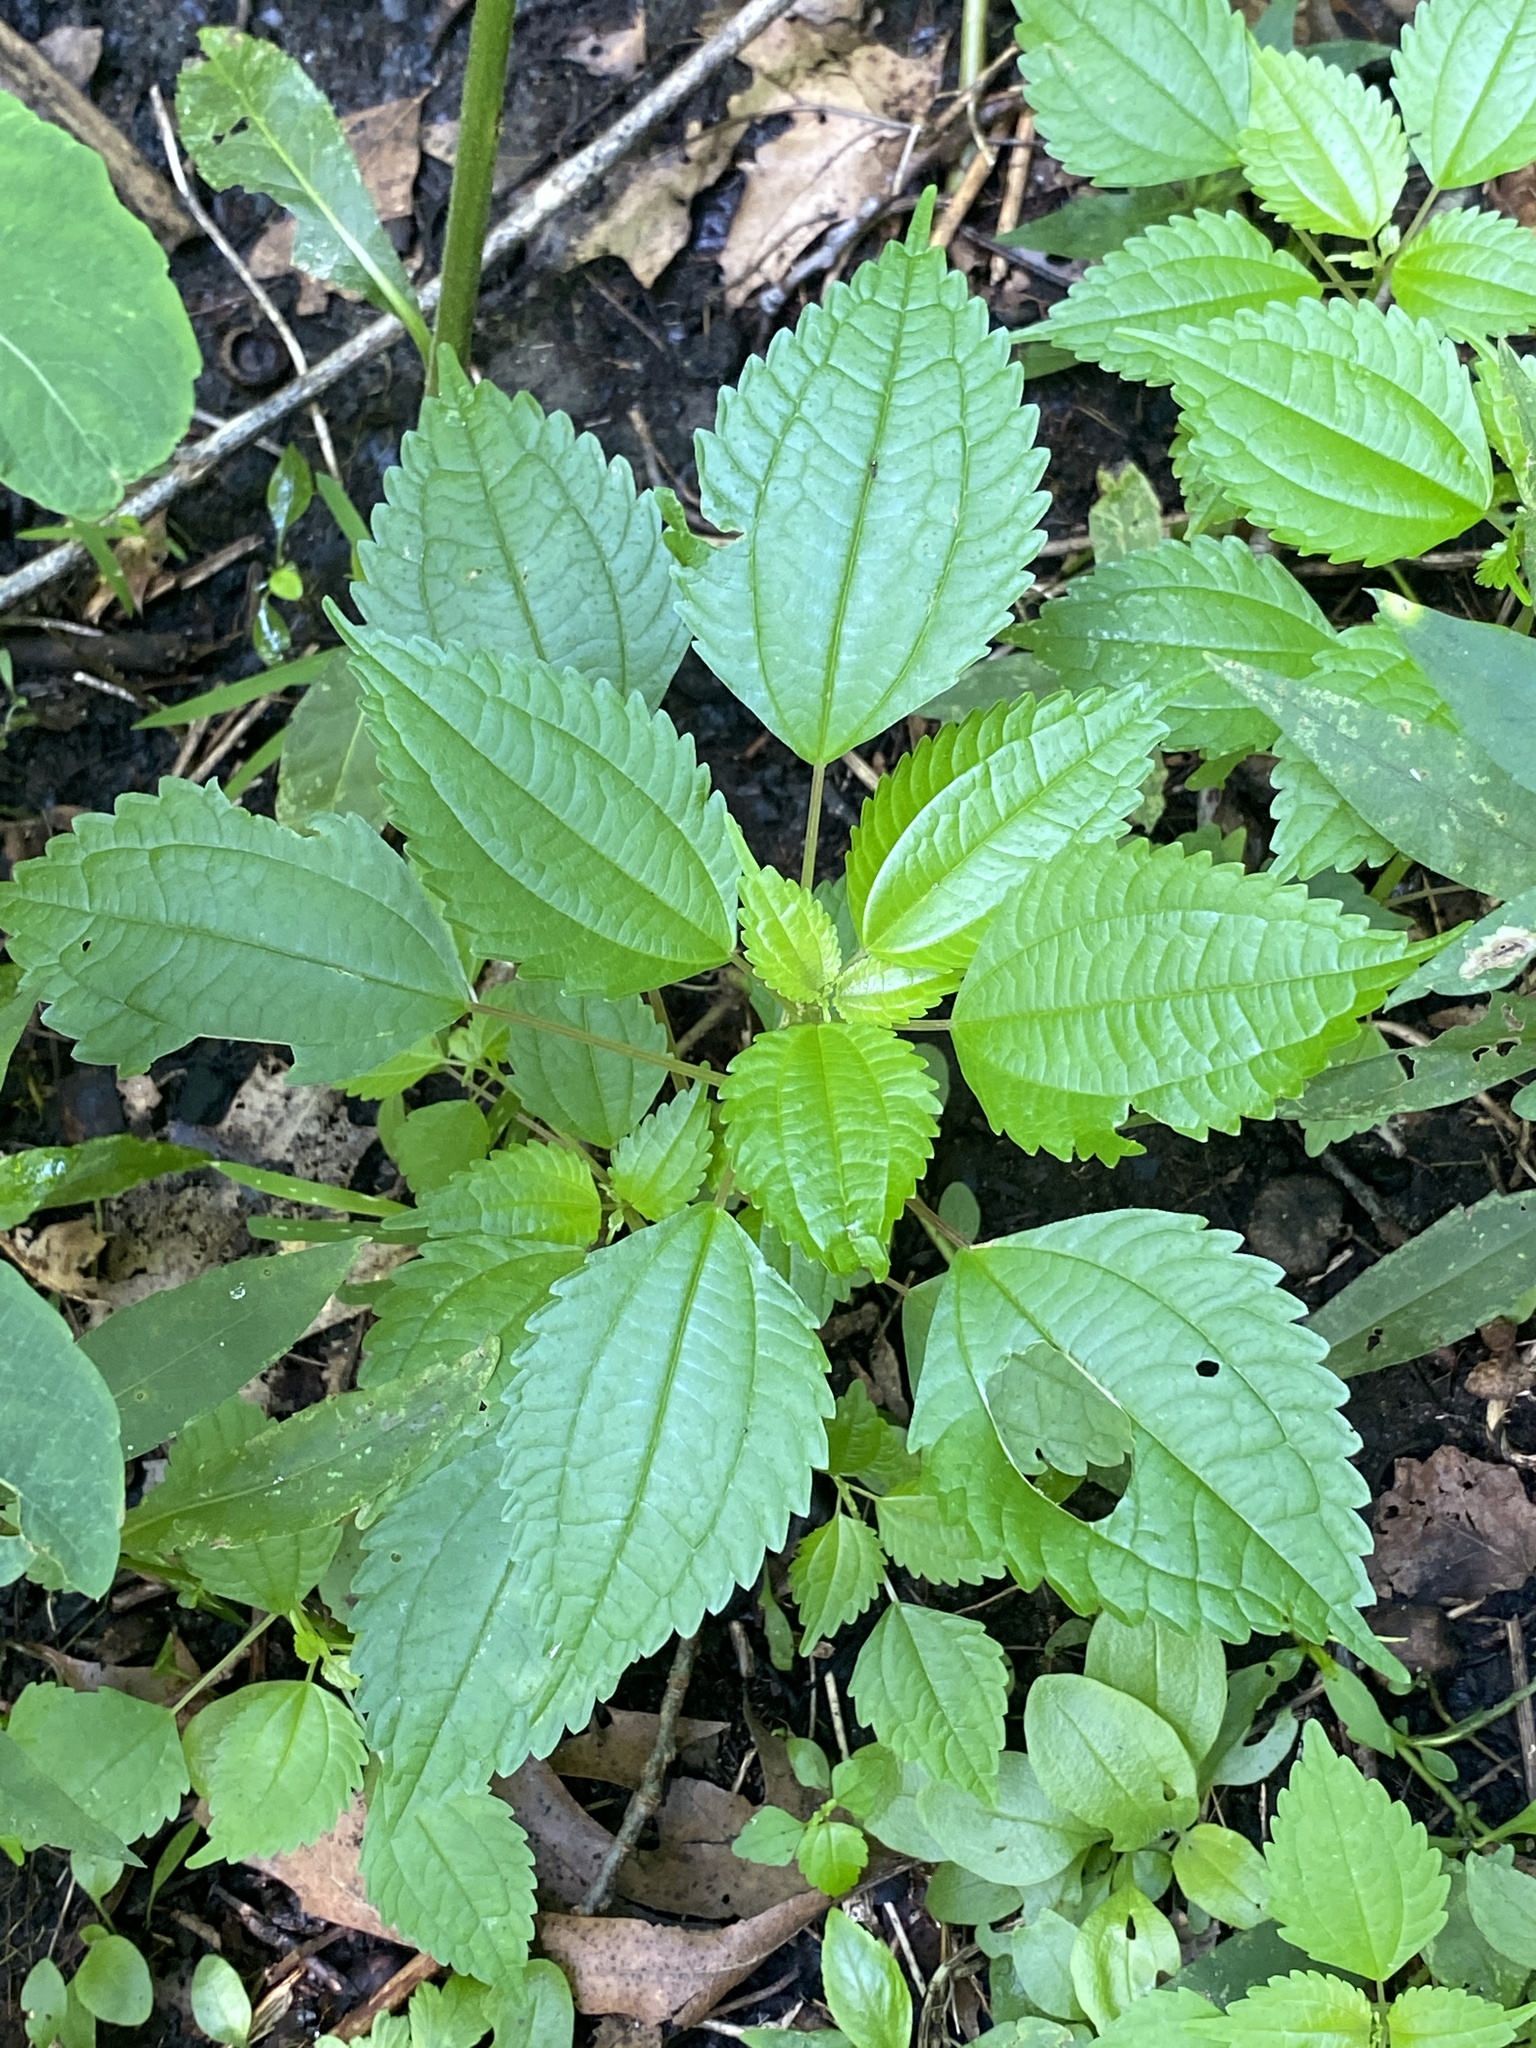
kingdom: Plantae
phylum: Tracheophyta
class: Magnoliopsida
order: Rosales
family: Urticaceae
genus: Pilea
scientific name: Pilea pumila
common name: Clearweed
